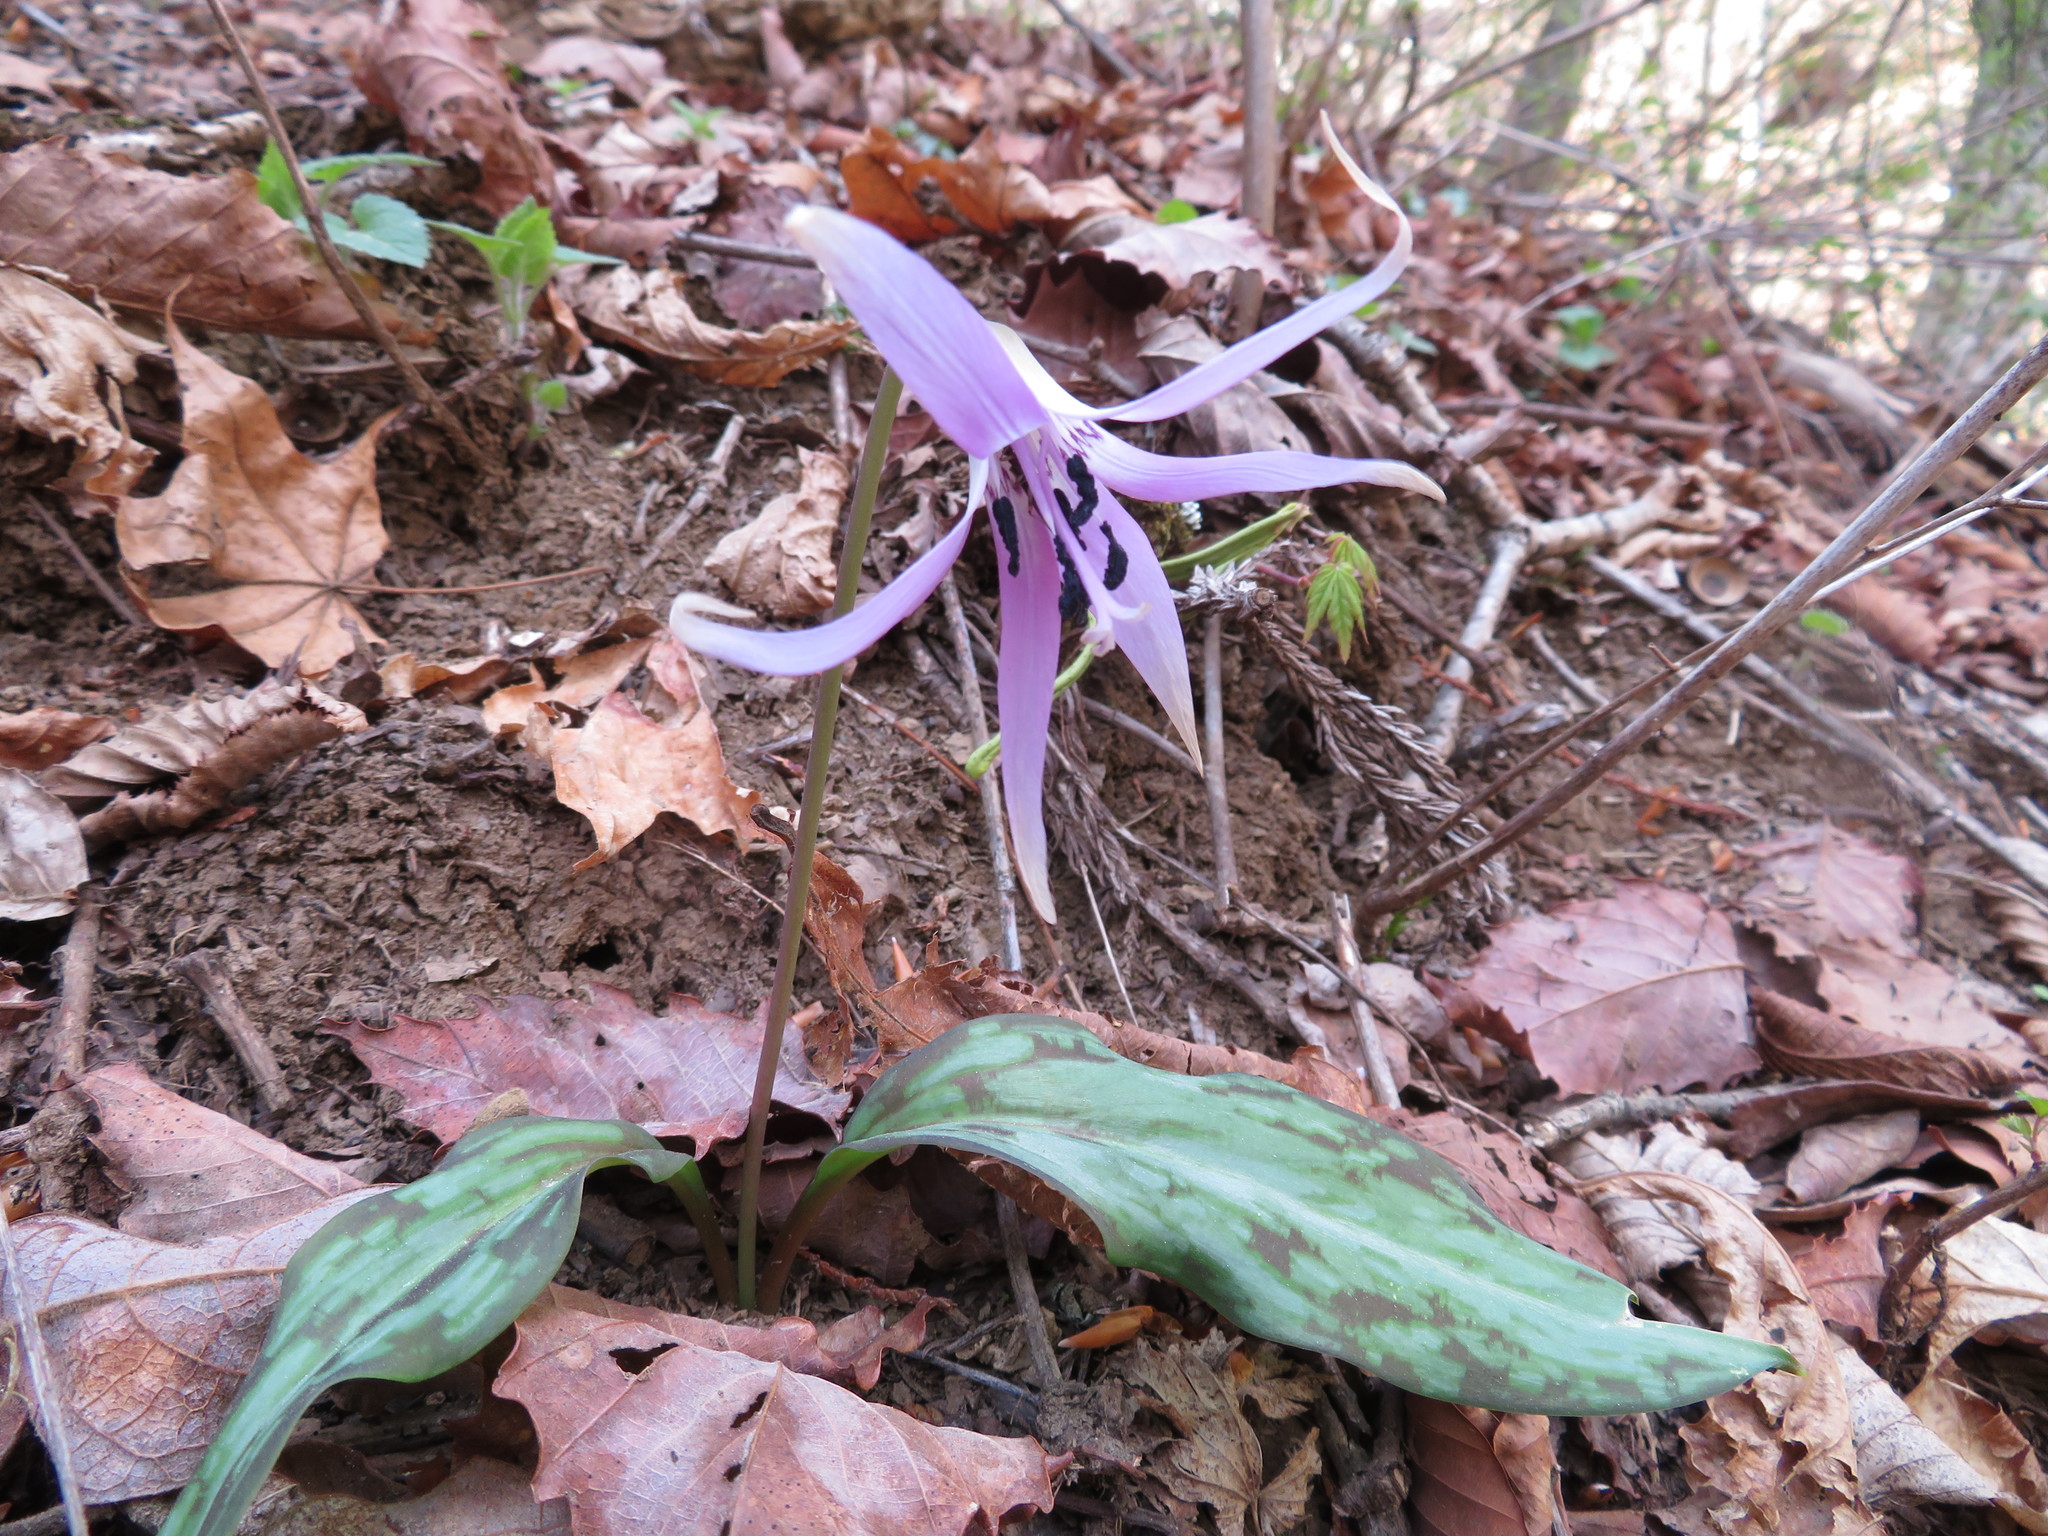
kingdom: Plantae
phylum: Tracheophyta
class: Liliopsida
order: Liliales
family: Liliaceae
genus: Erythronium
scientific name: Erythronium japonicum
